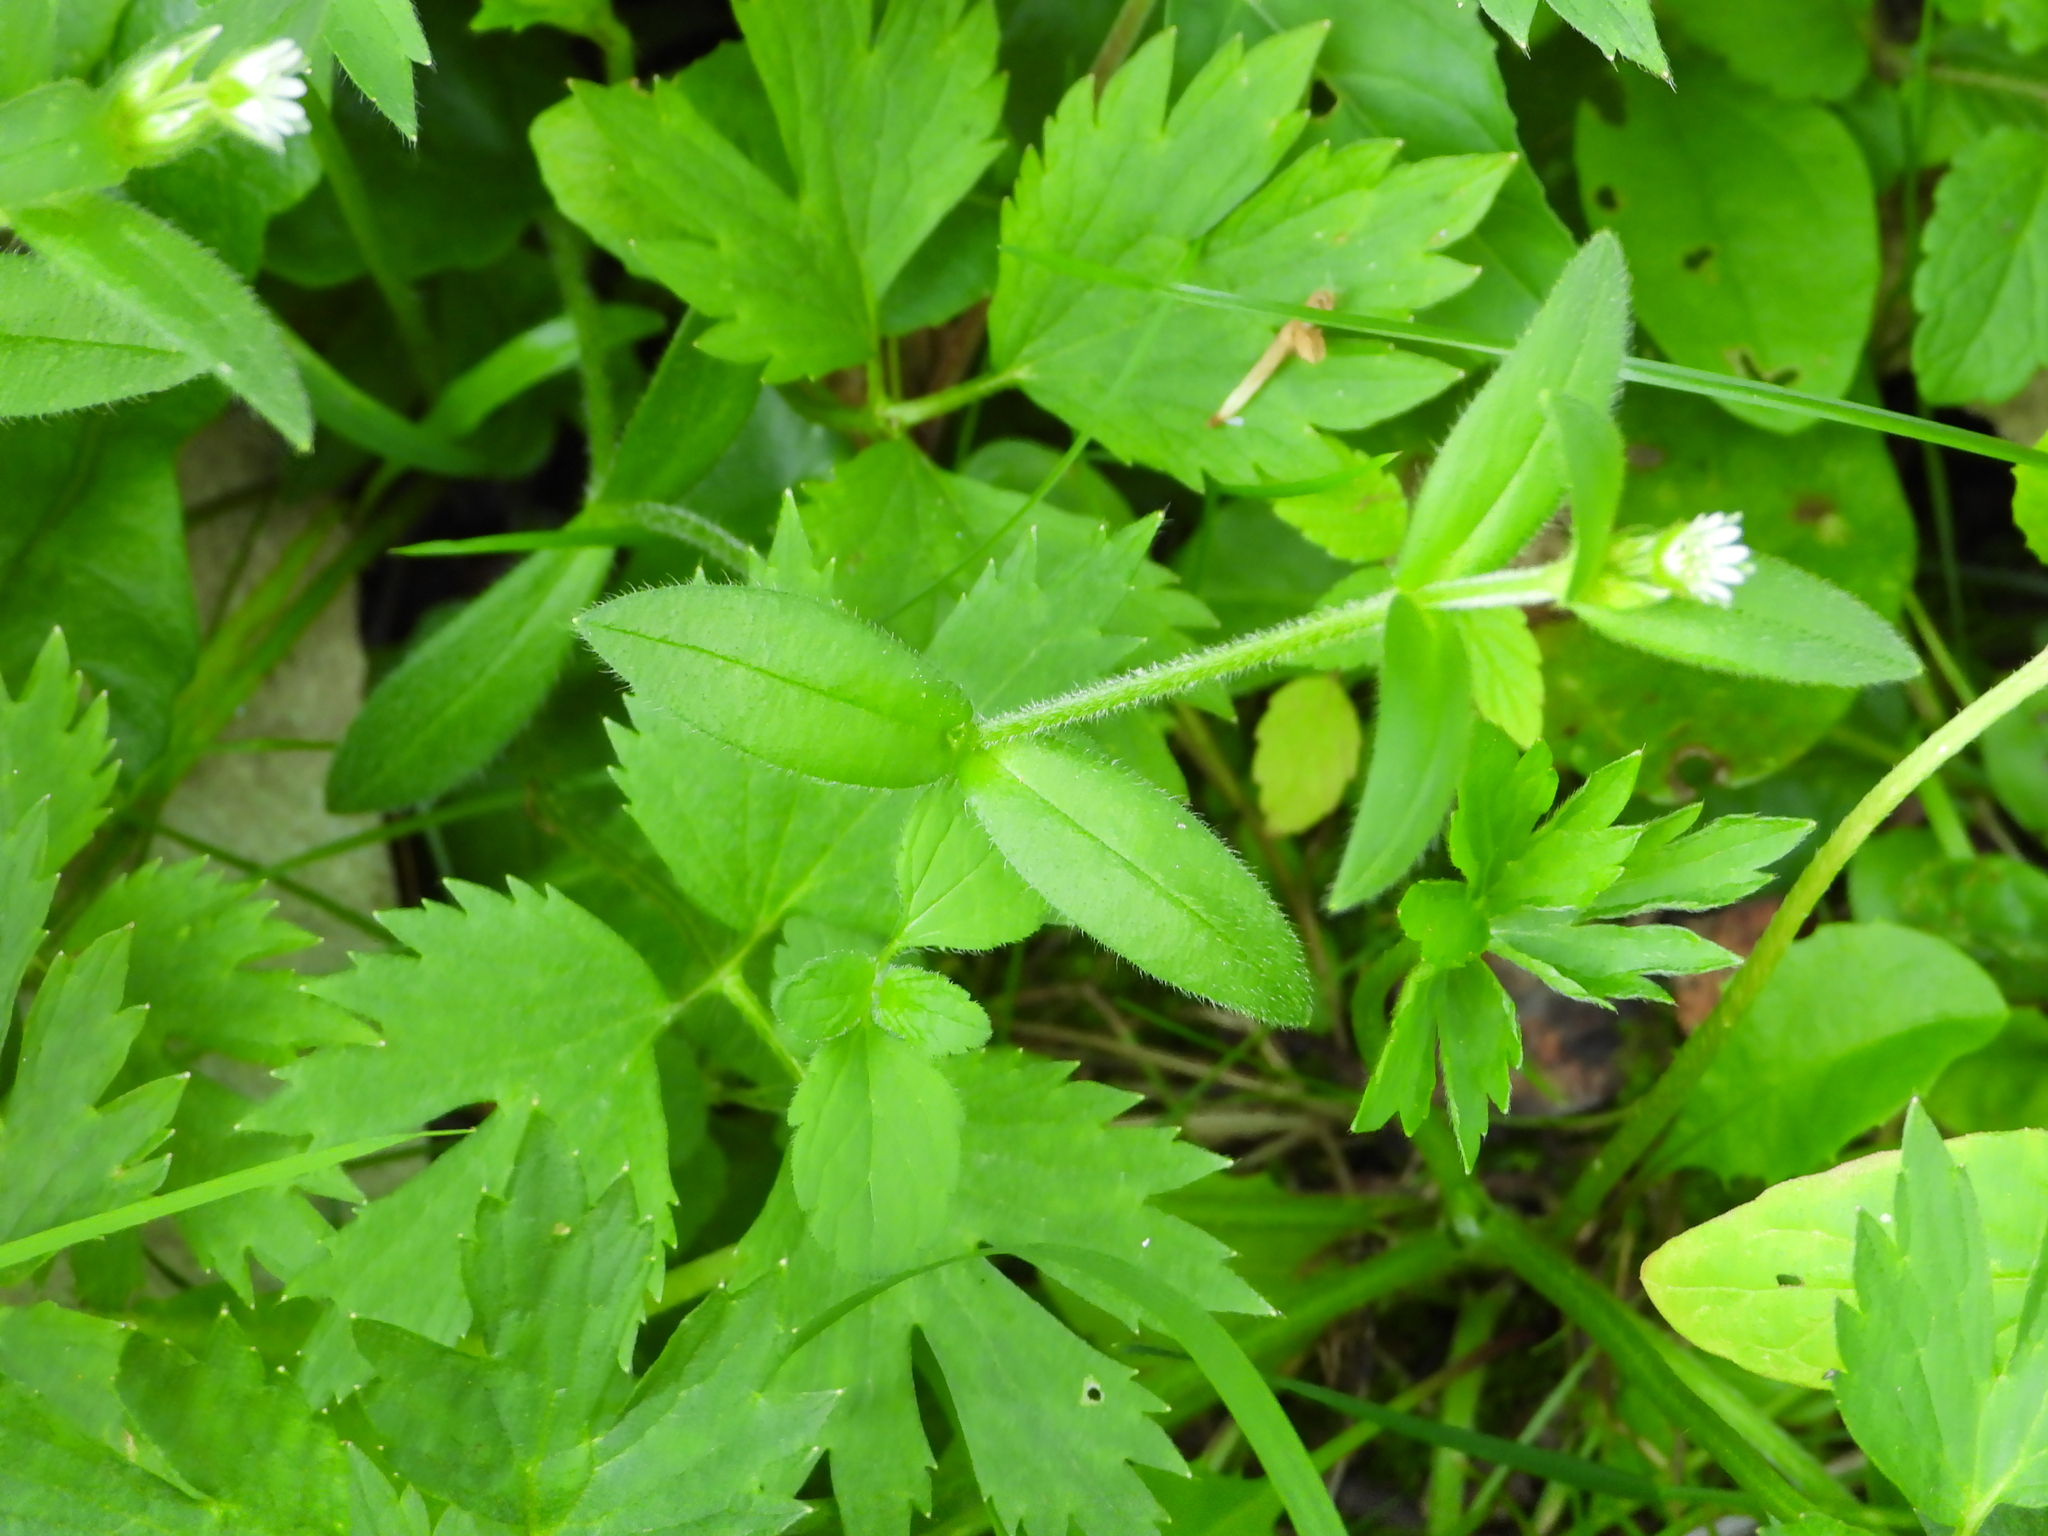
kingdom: Plantae
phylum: Tracheophyta
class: Magnoliopsida
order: Caryophyllales
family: Caryophyllaceae
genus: Cerastium
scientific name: Cerastium holosteoides
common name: Big chickweed
